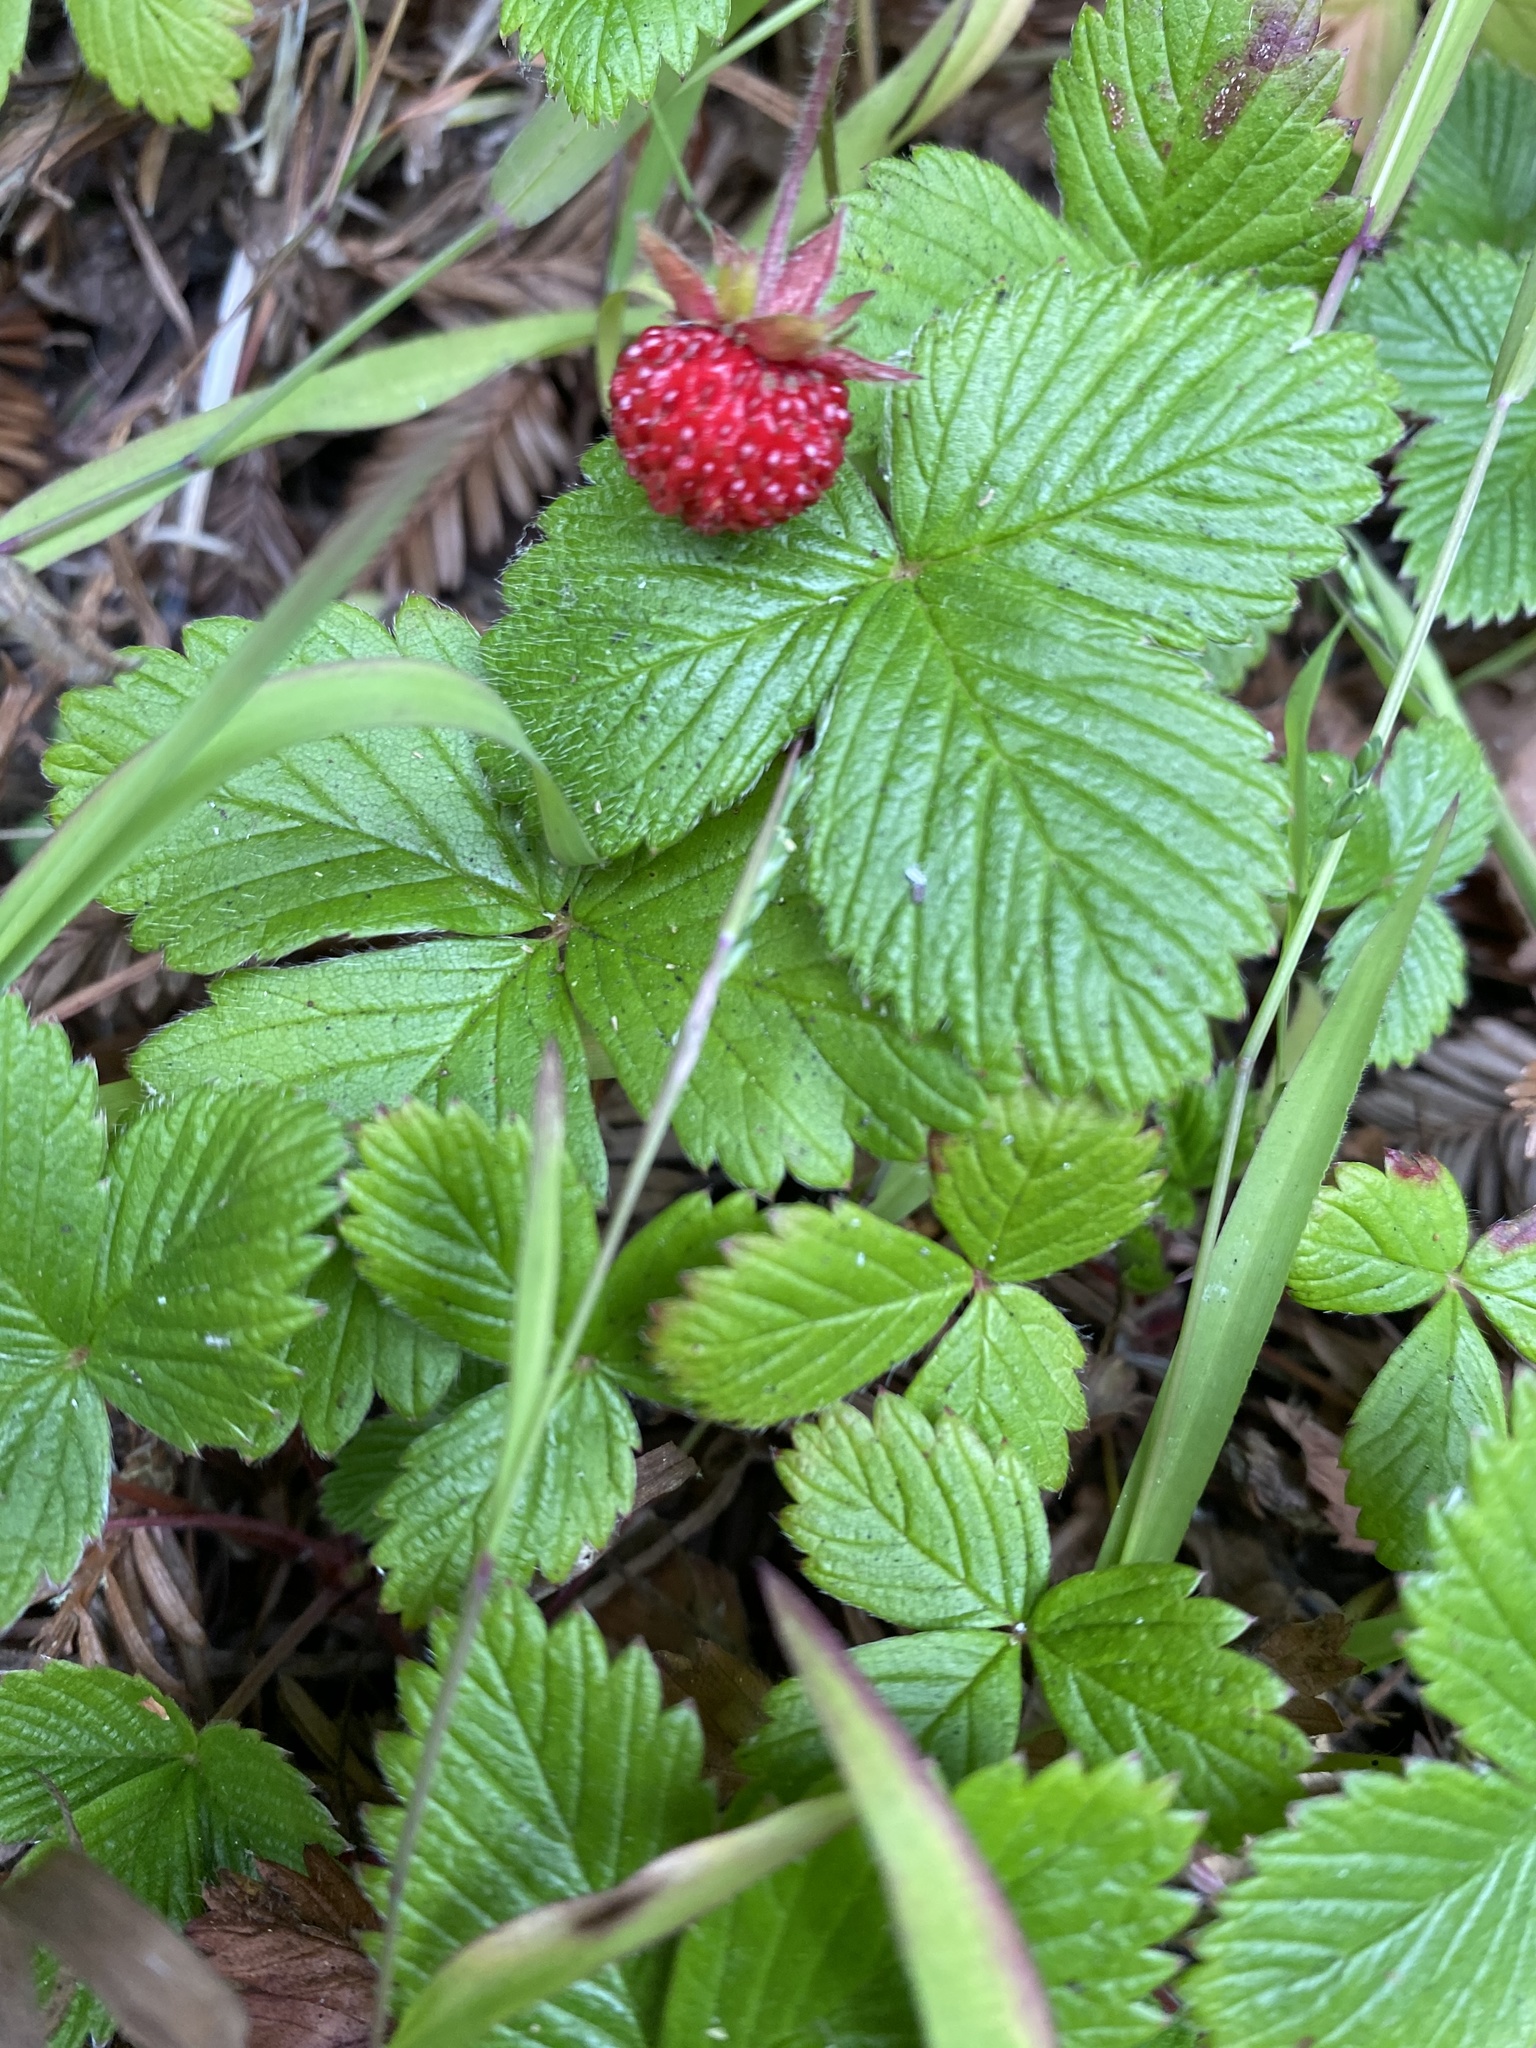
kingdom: Plantae
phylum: Tracheophyta
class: Magnoliopsida
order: Rosales
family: Rosaceae
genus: Fragaria
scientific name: Fragaria vesca
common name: Wild strawberry
